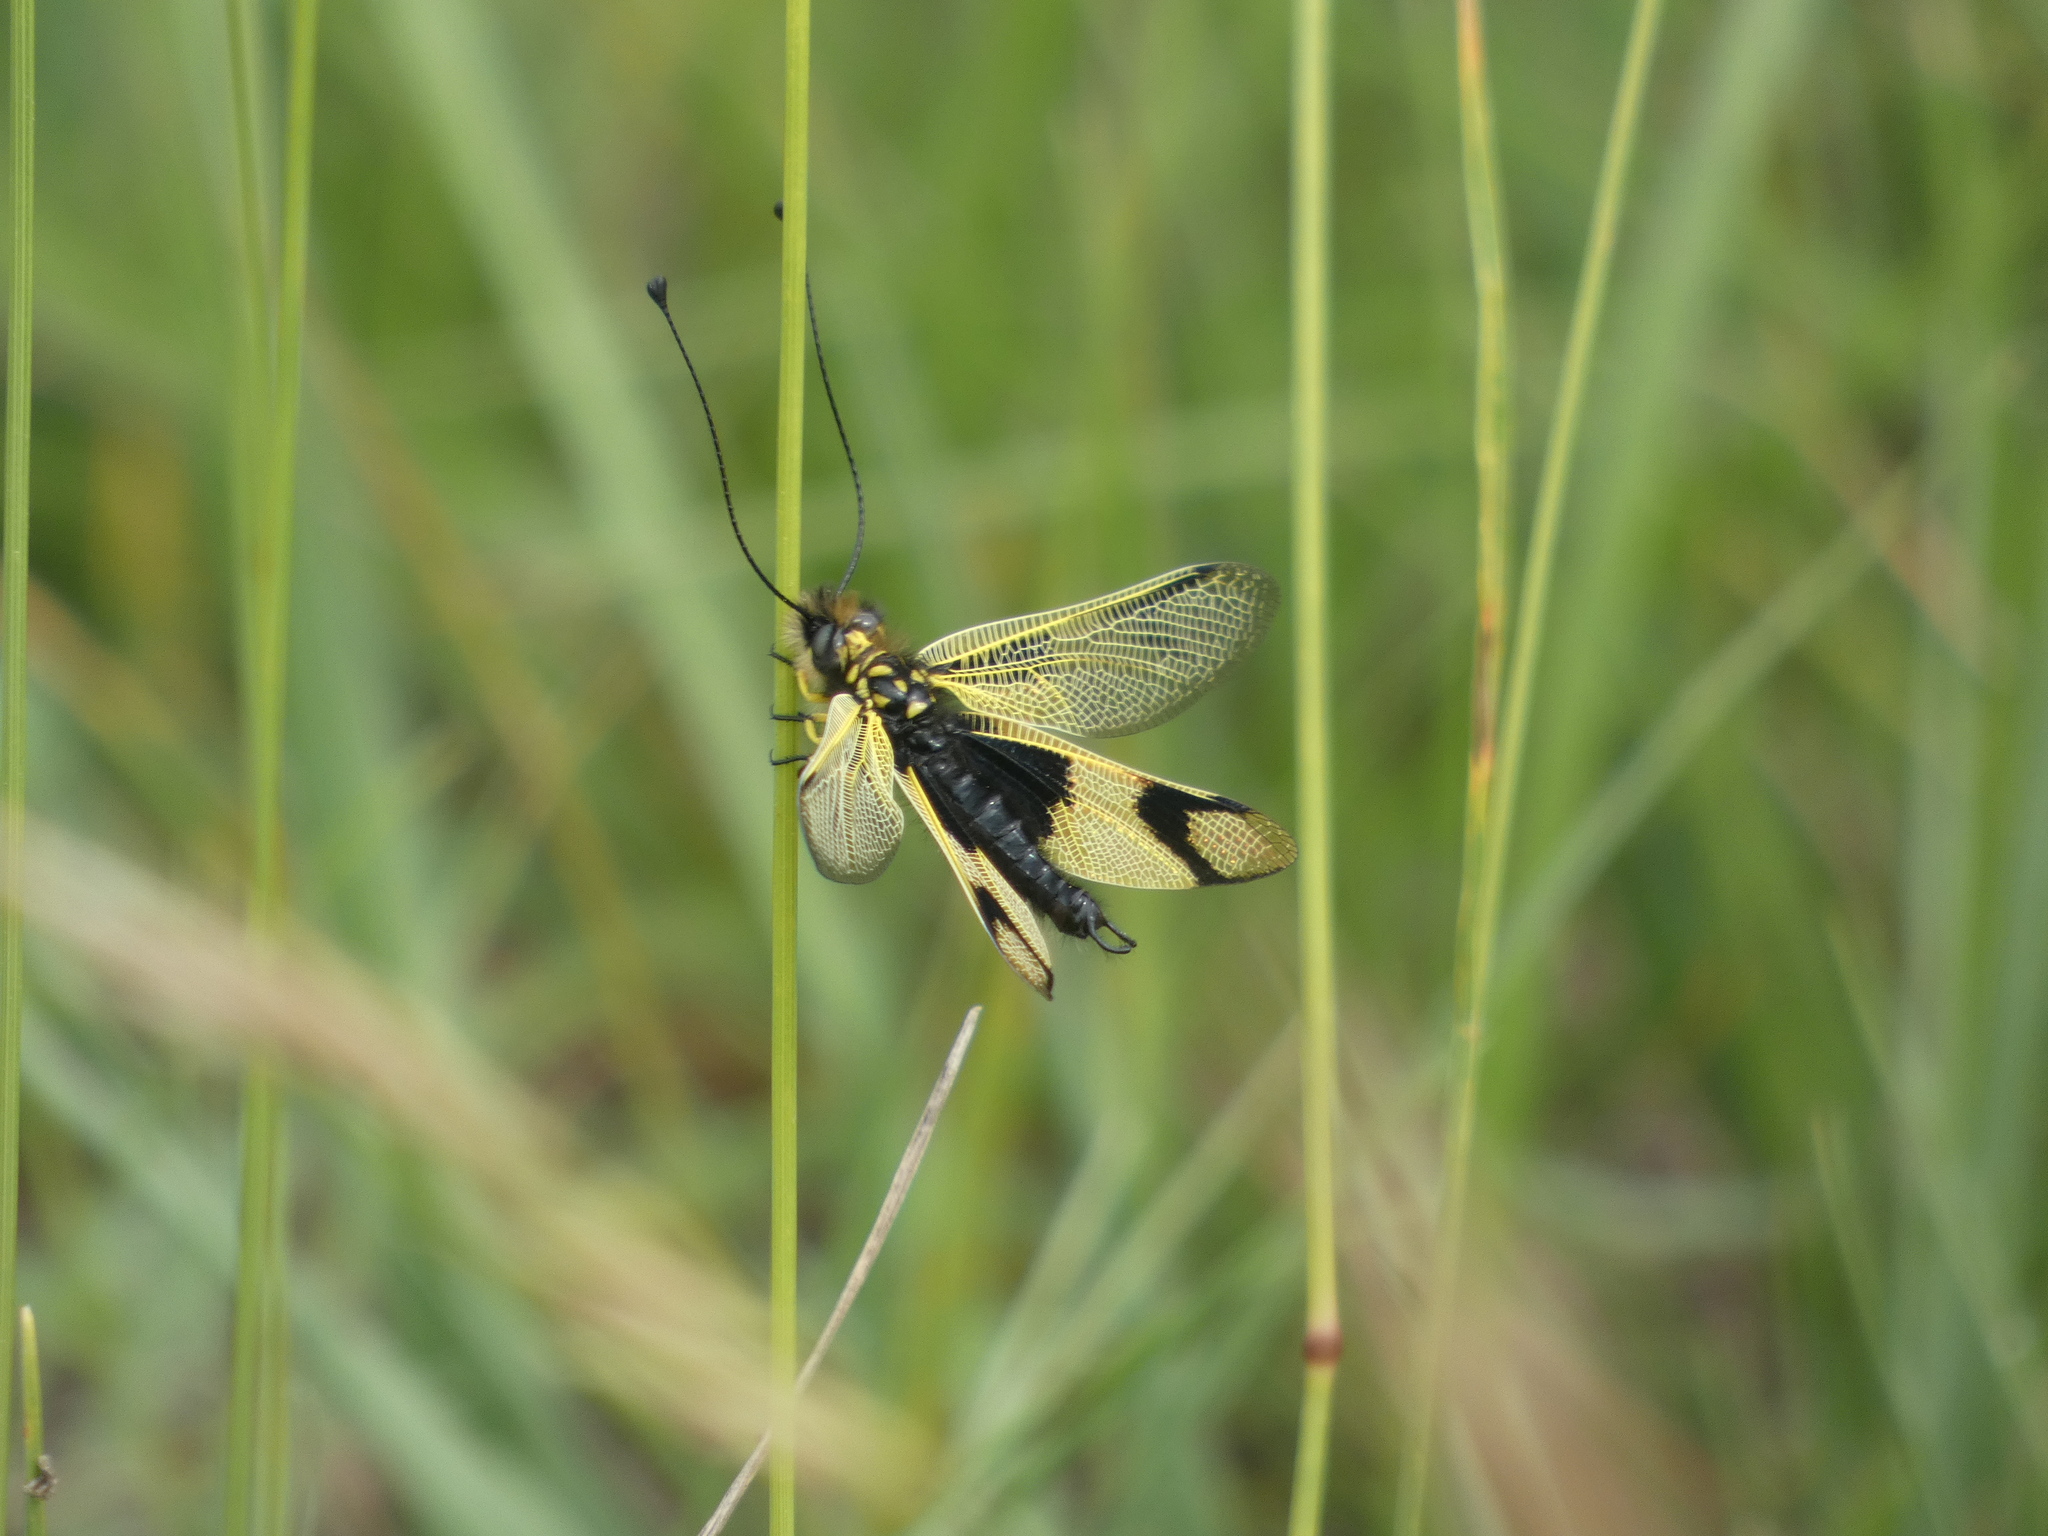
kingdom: Animalia
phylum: Arthropoda
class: Insecta
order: Neuroptera
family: Ascalaphidae
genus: Libelloides
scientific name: Libelloides longicornis
